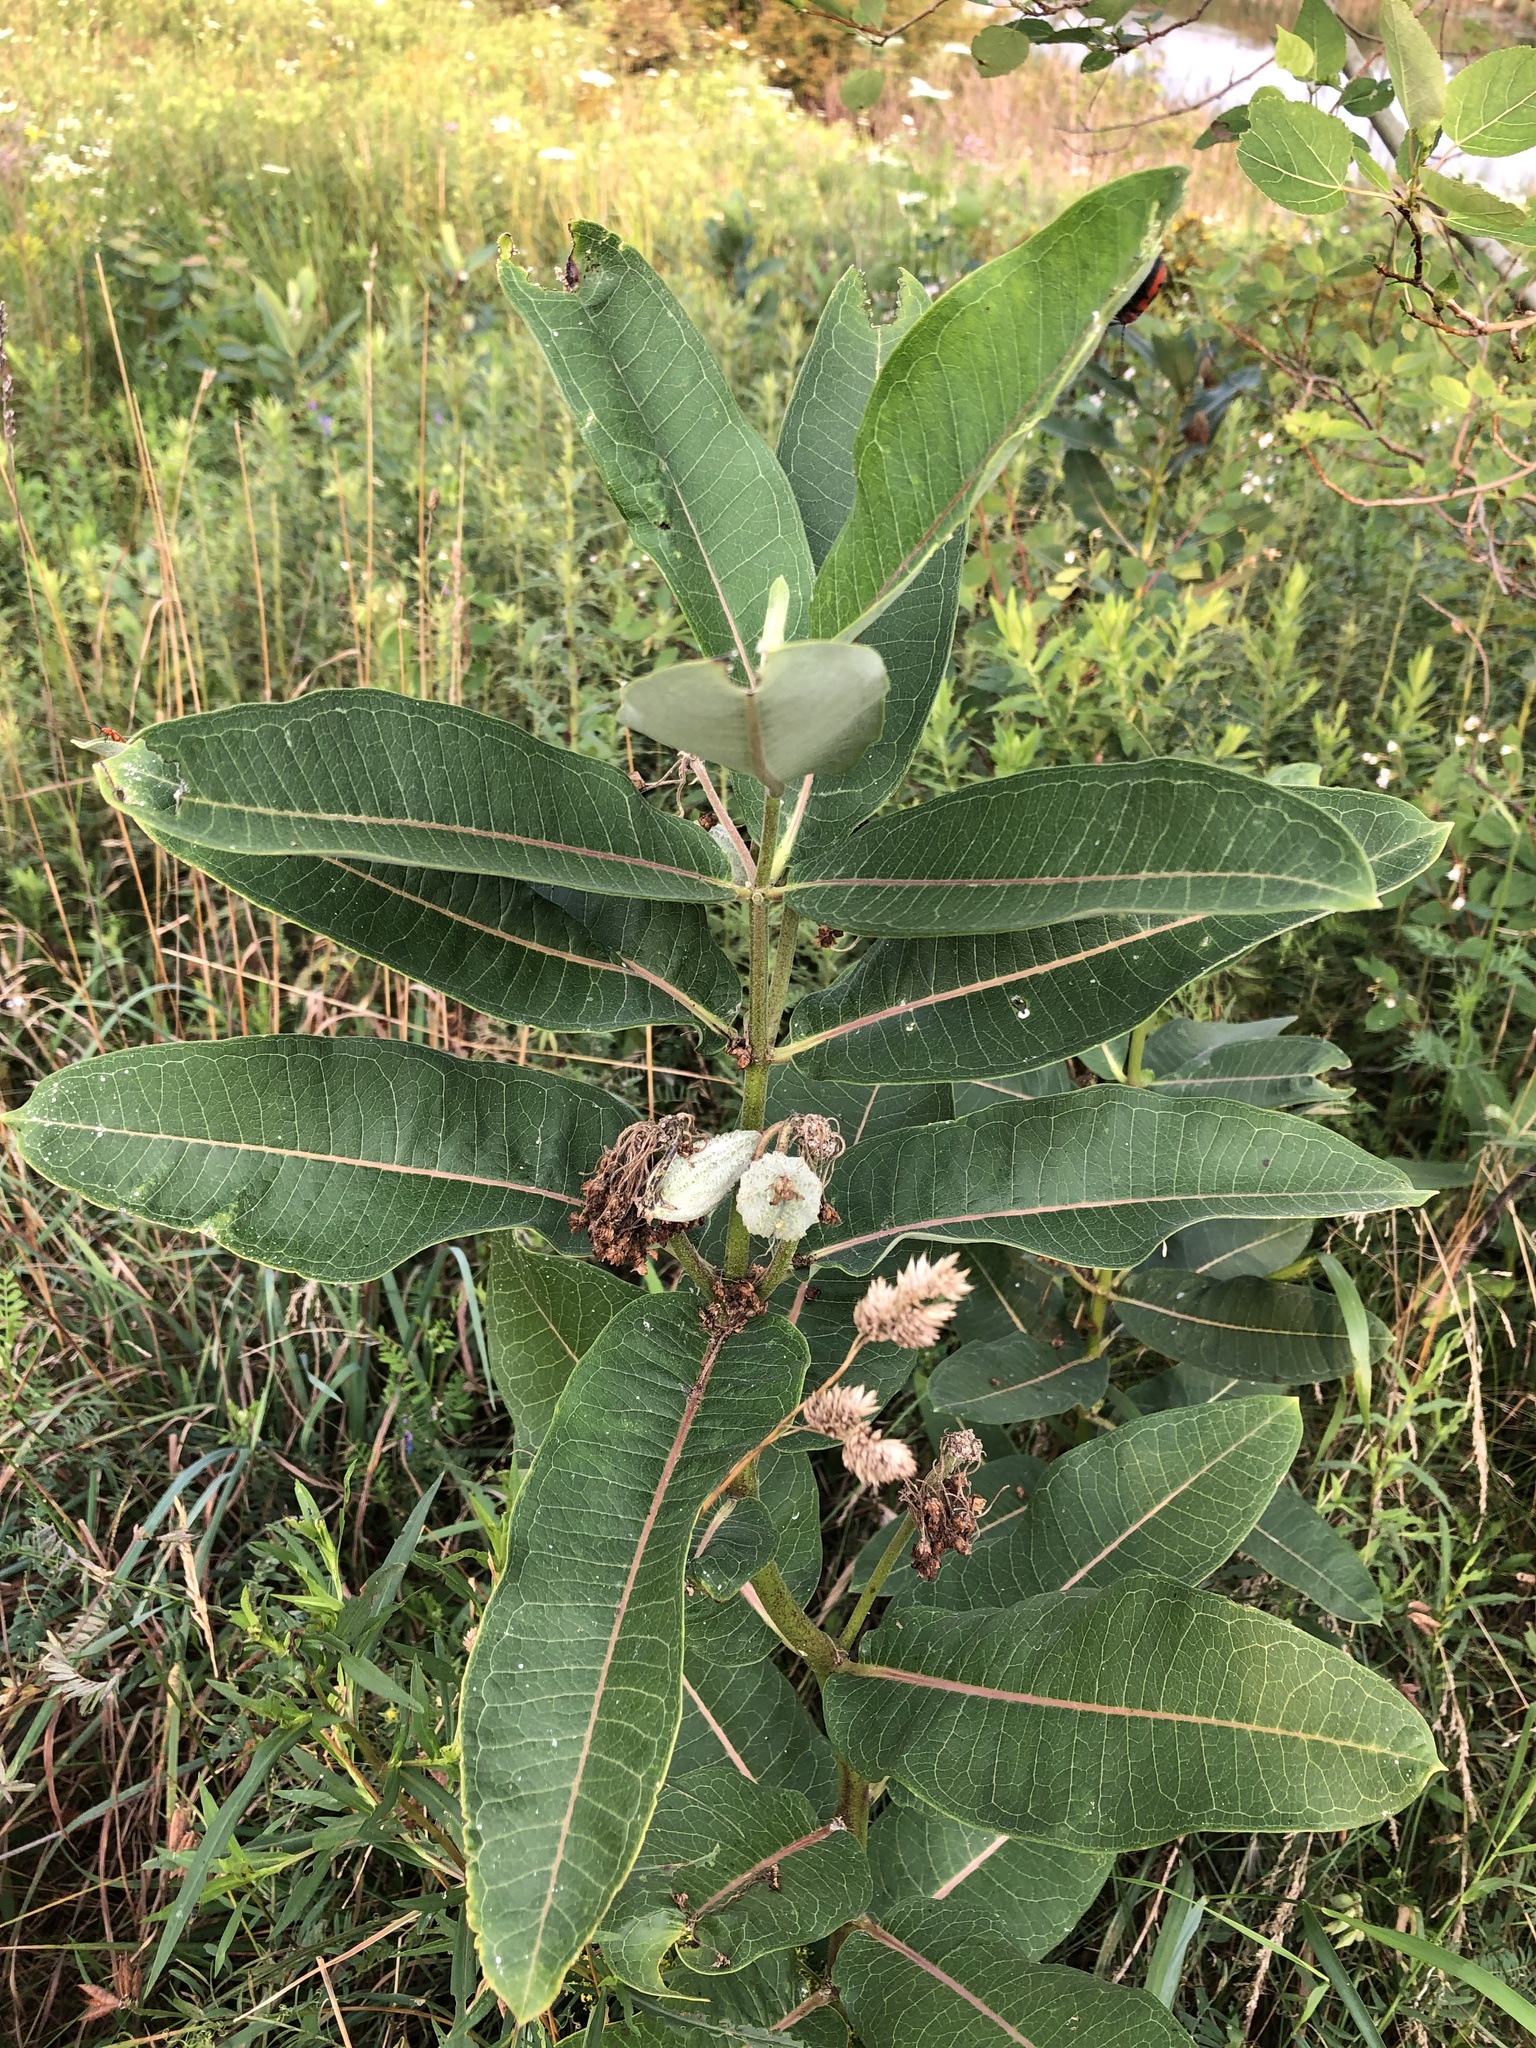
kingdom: Plantae
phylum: Tracheophyta
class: Magnoliopsida
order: Gentianales
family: Apocynaceae
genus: Asclepias
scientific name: Asclepias syriaca
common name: Common milkweed
